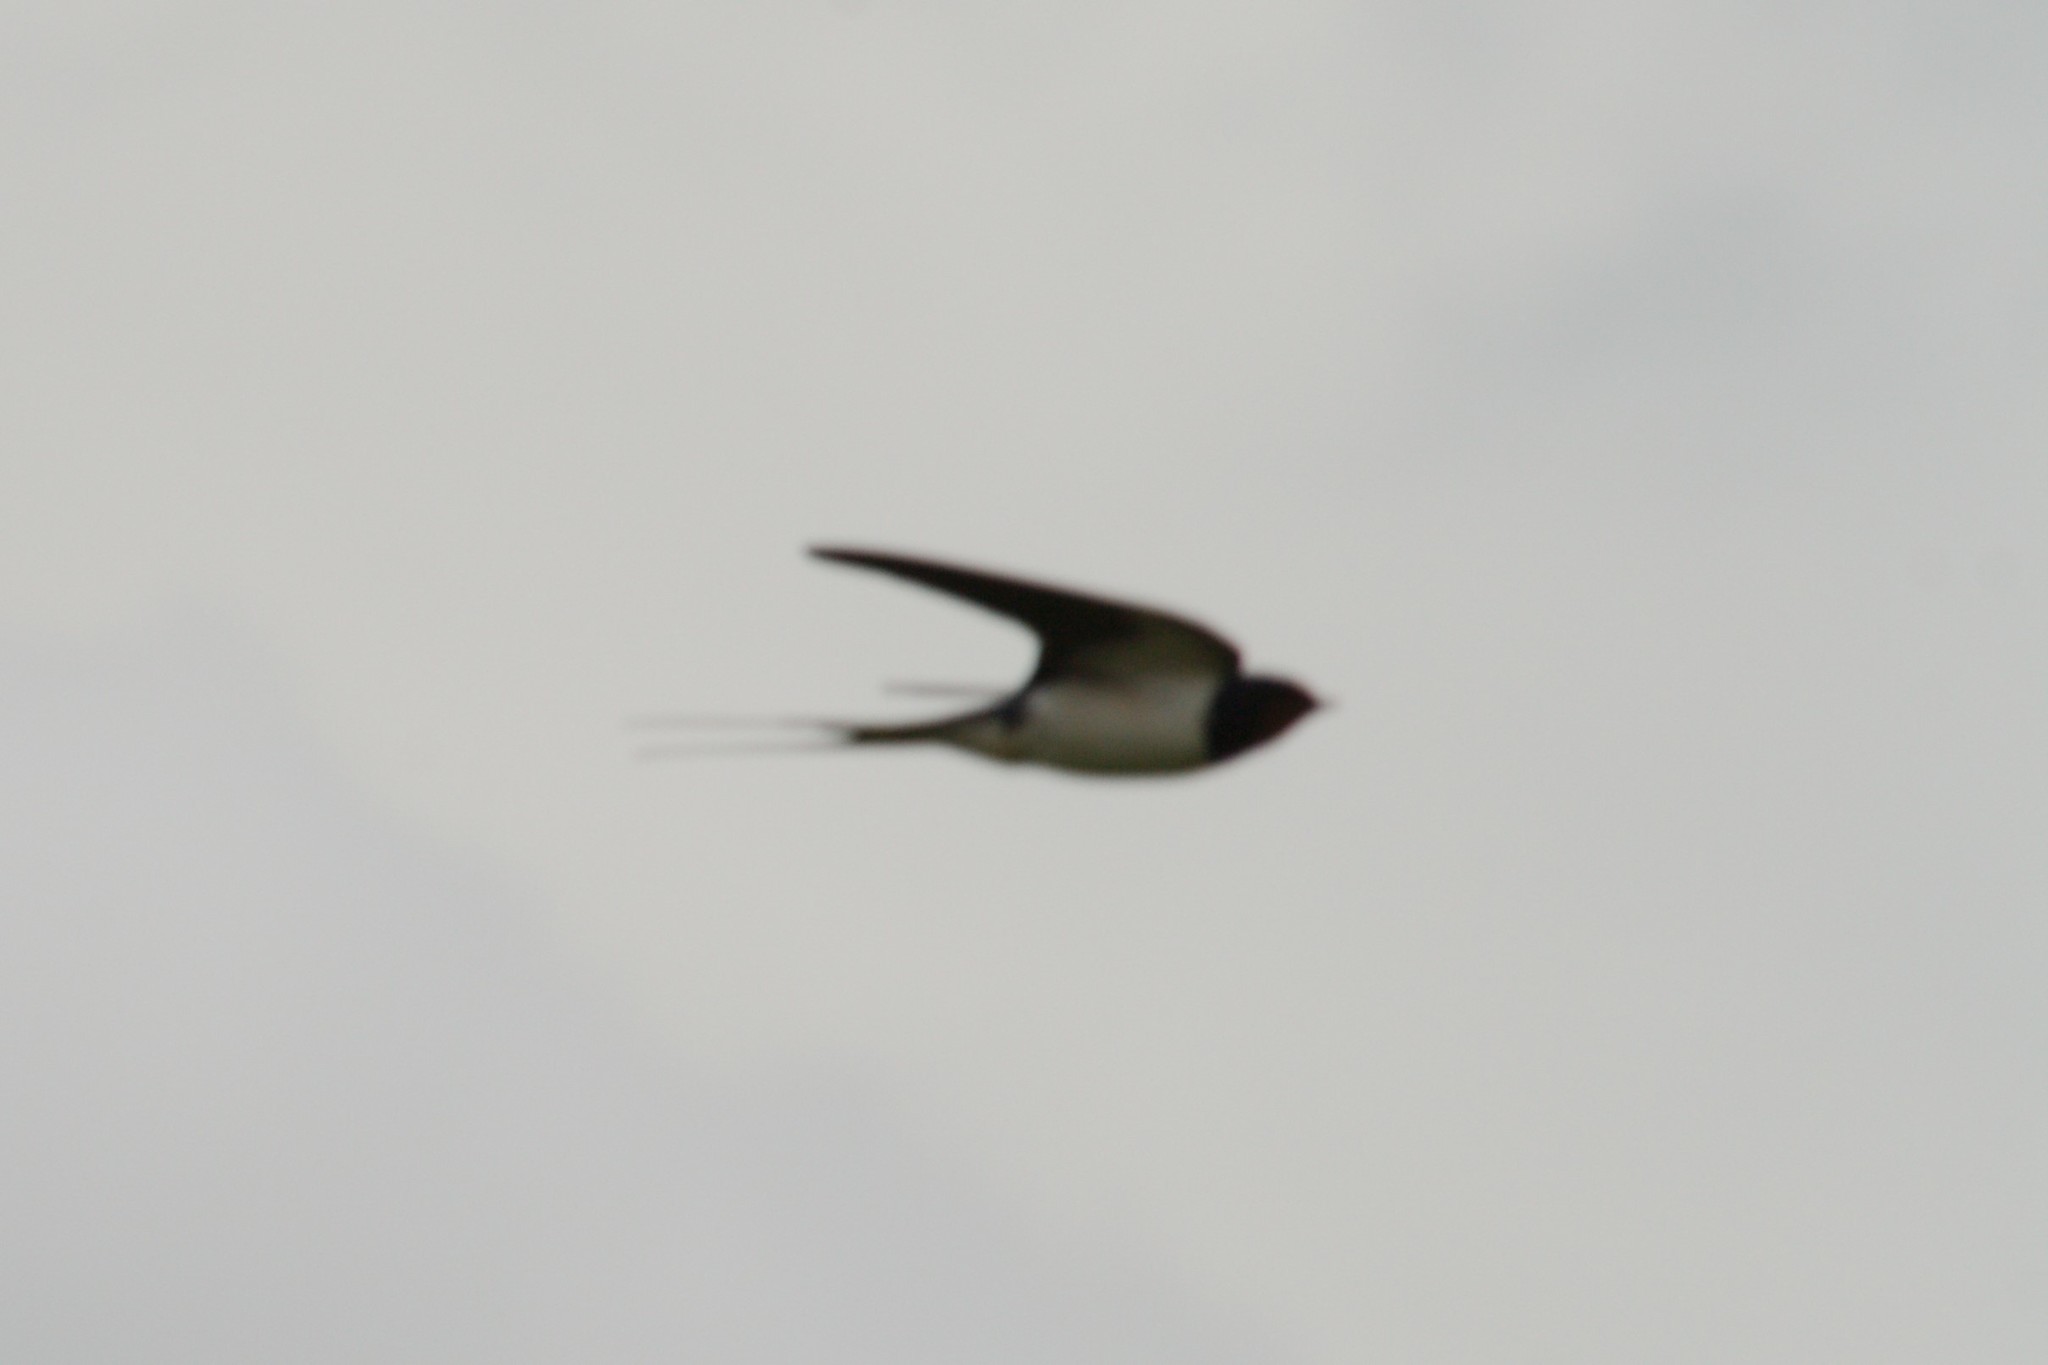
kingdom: Animalia
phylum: Chordata
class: Aves
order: Passeriformes
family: Hirundinidae
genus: Hirundo
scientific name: Hirundo rustica
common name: Barn swallow
